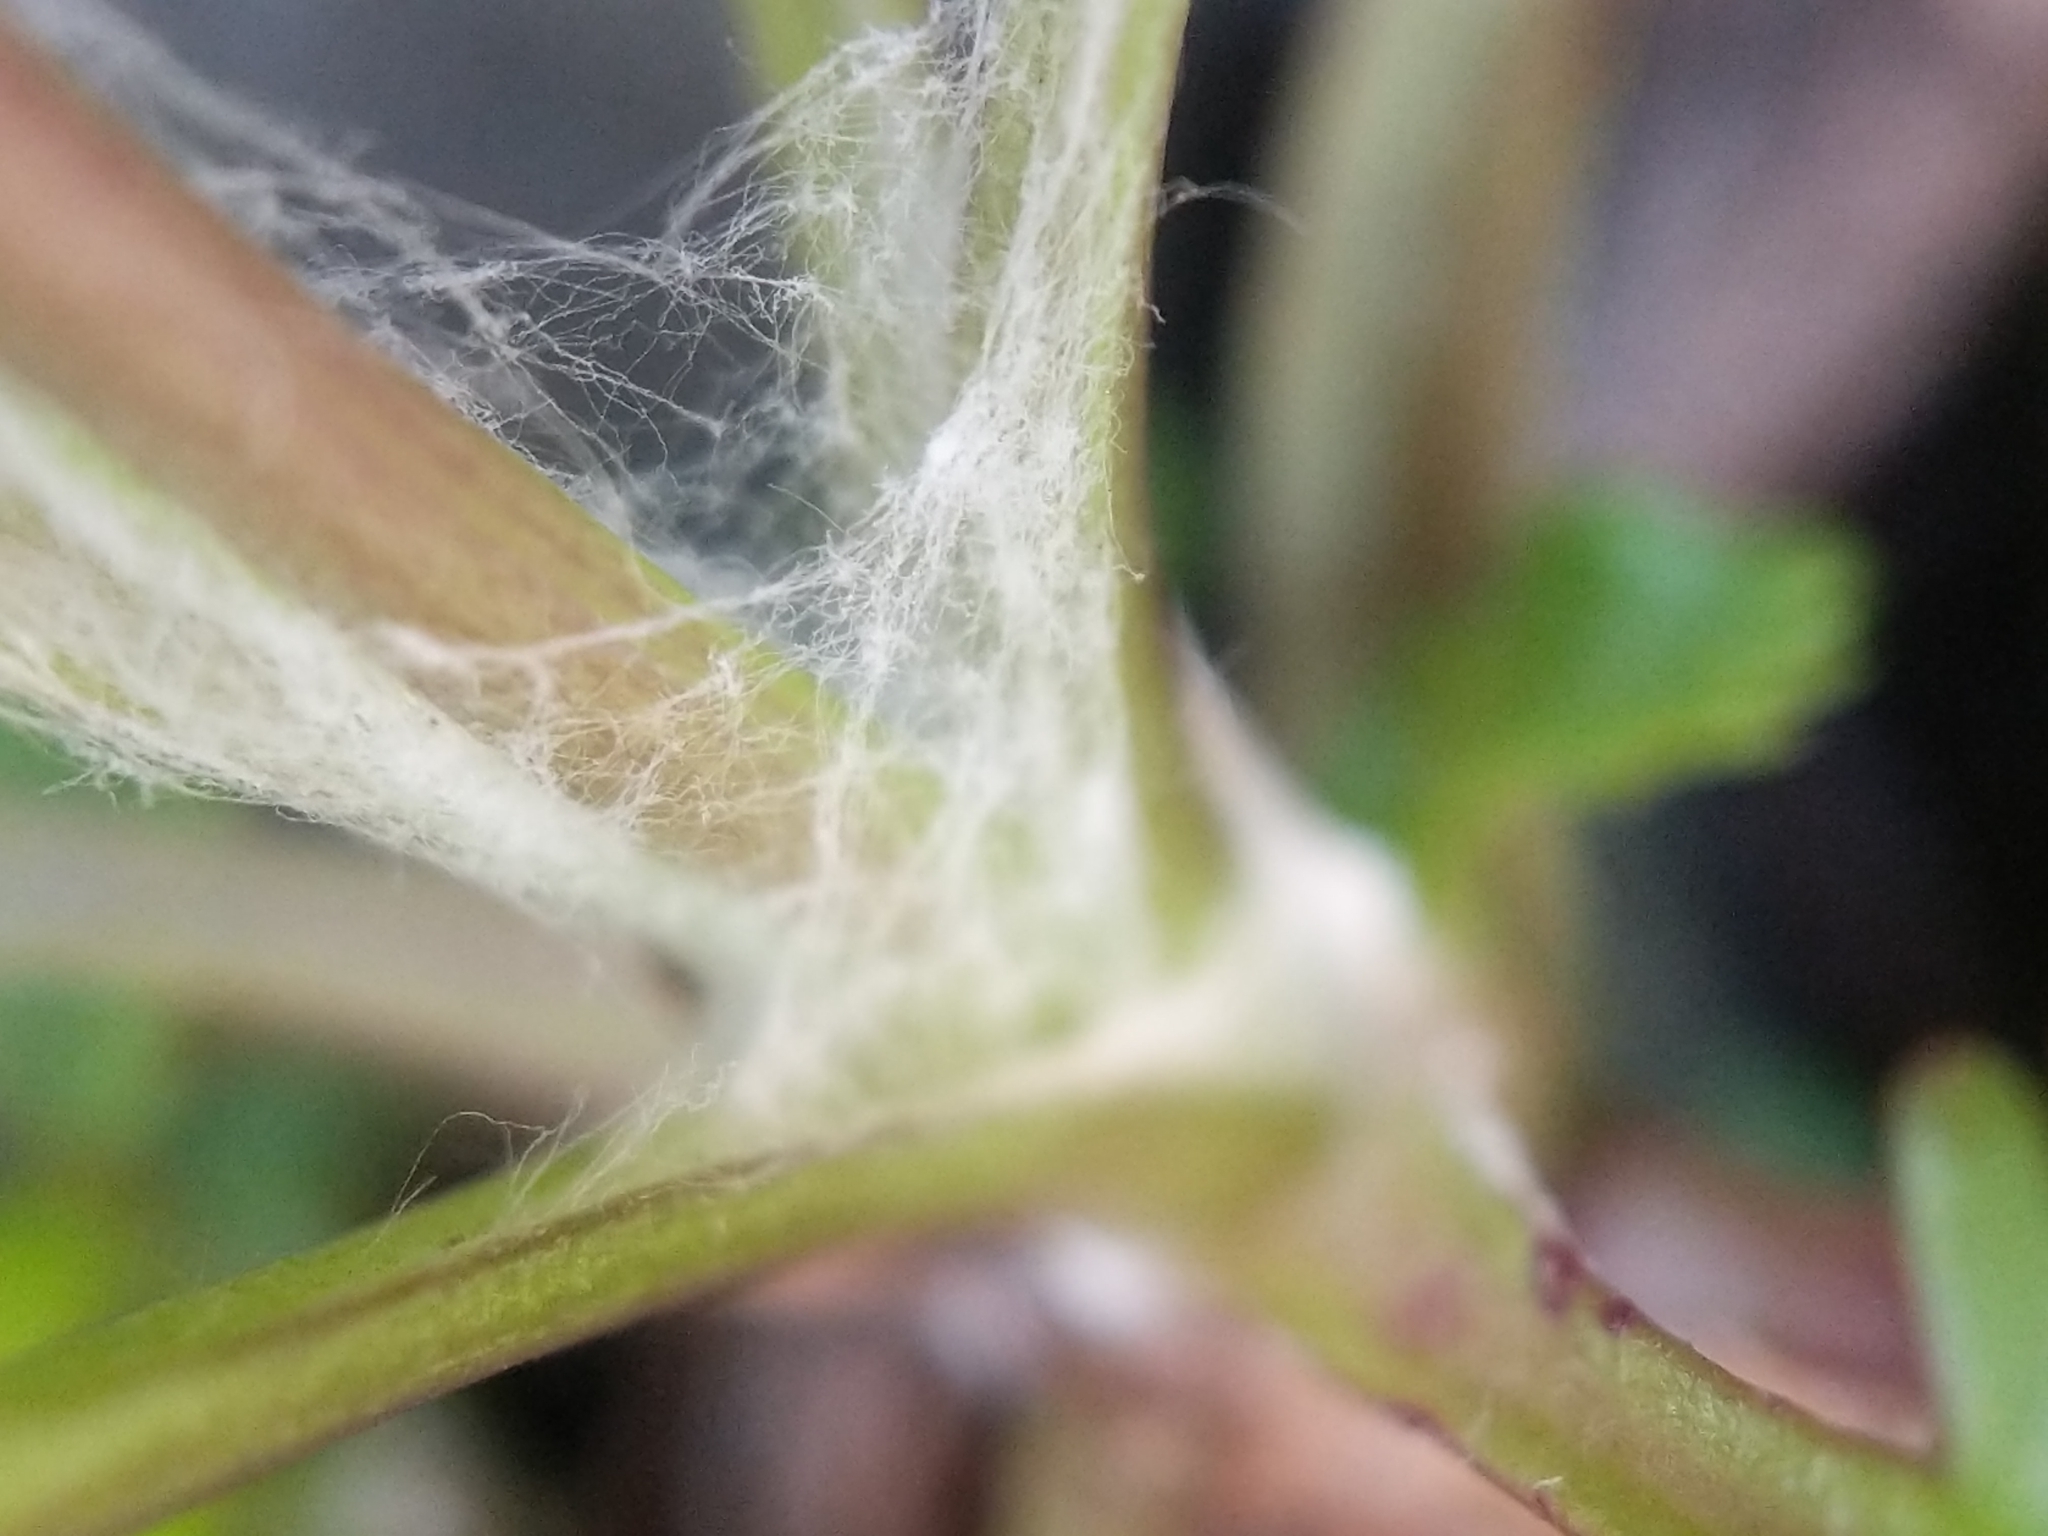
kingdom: Plantae
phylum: Tracheophyta
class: Magnoliopsida
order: Asterales
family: Asteraceae
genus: Packera
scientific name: Packera obovata
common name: Round-leaf ragwort
